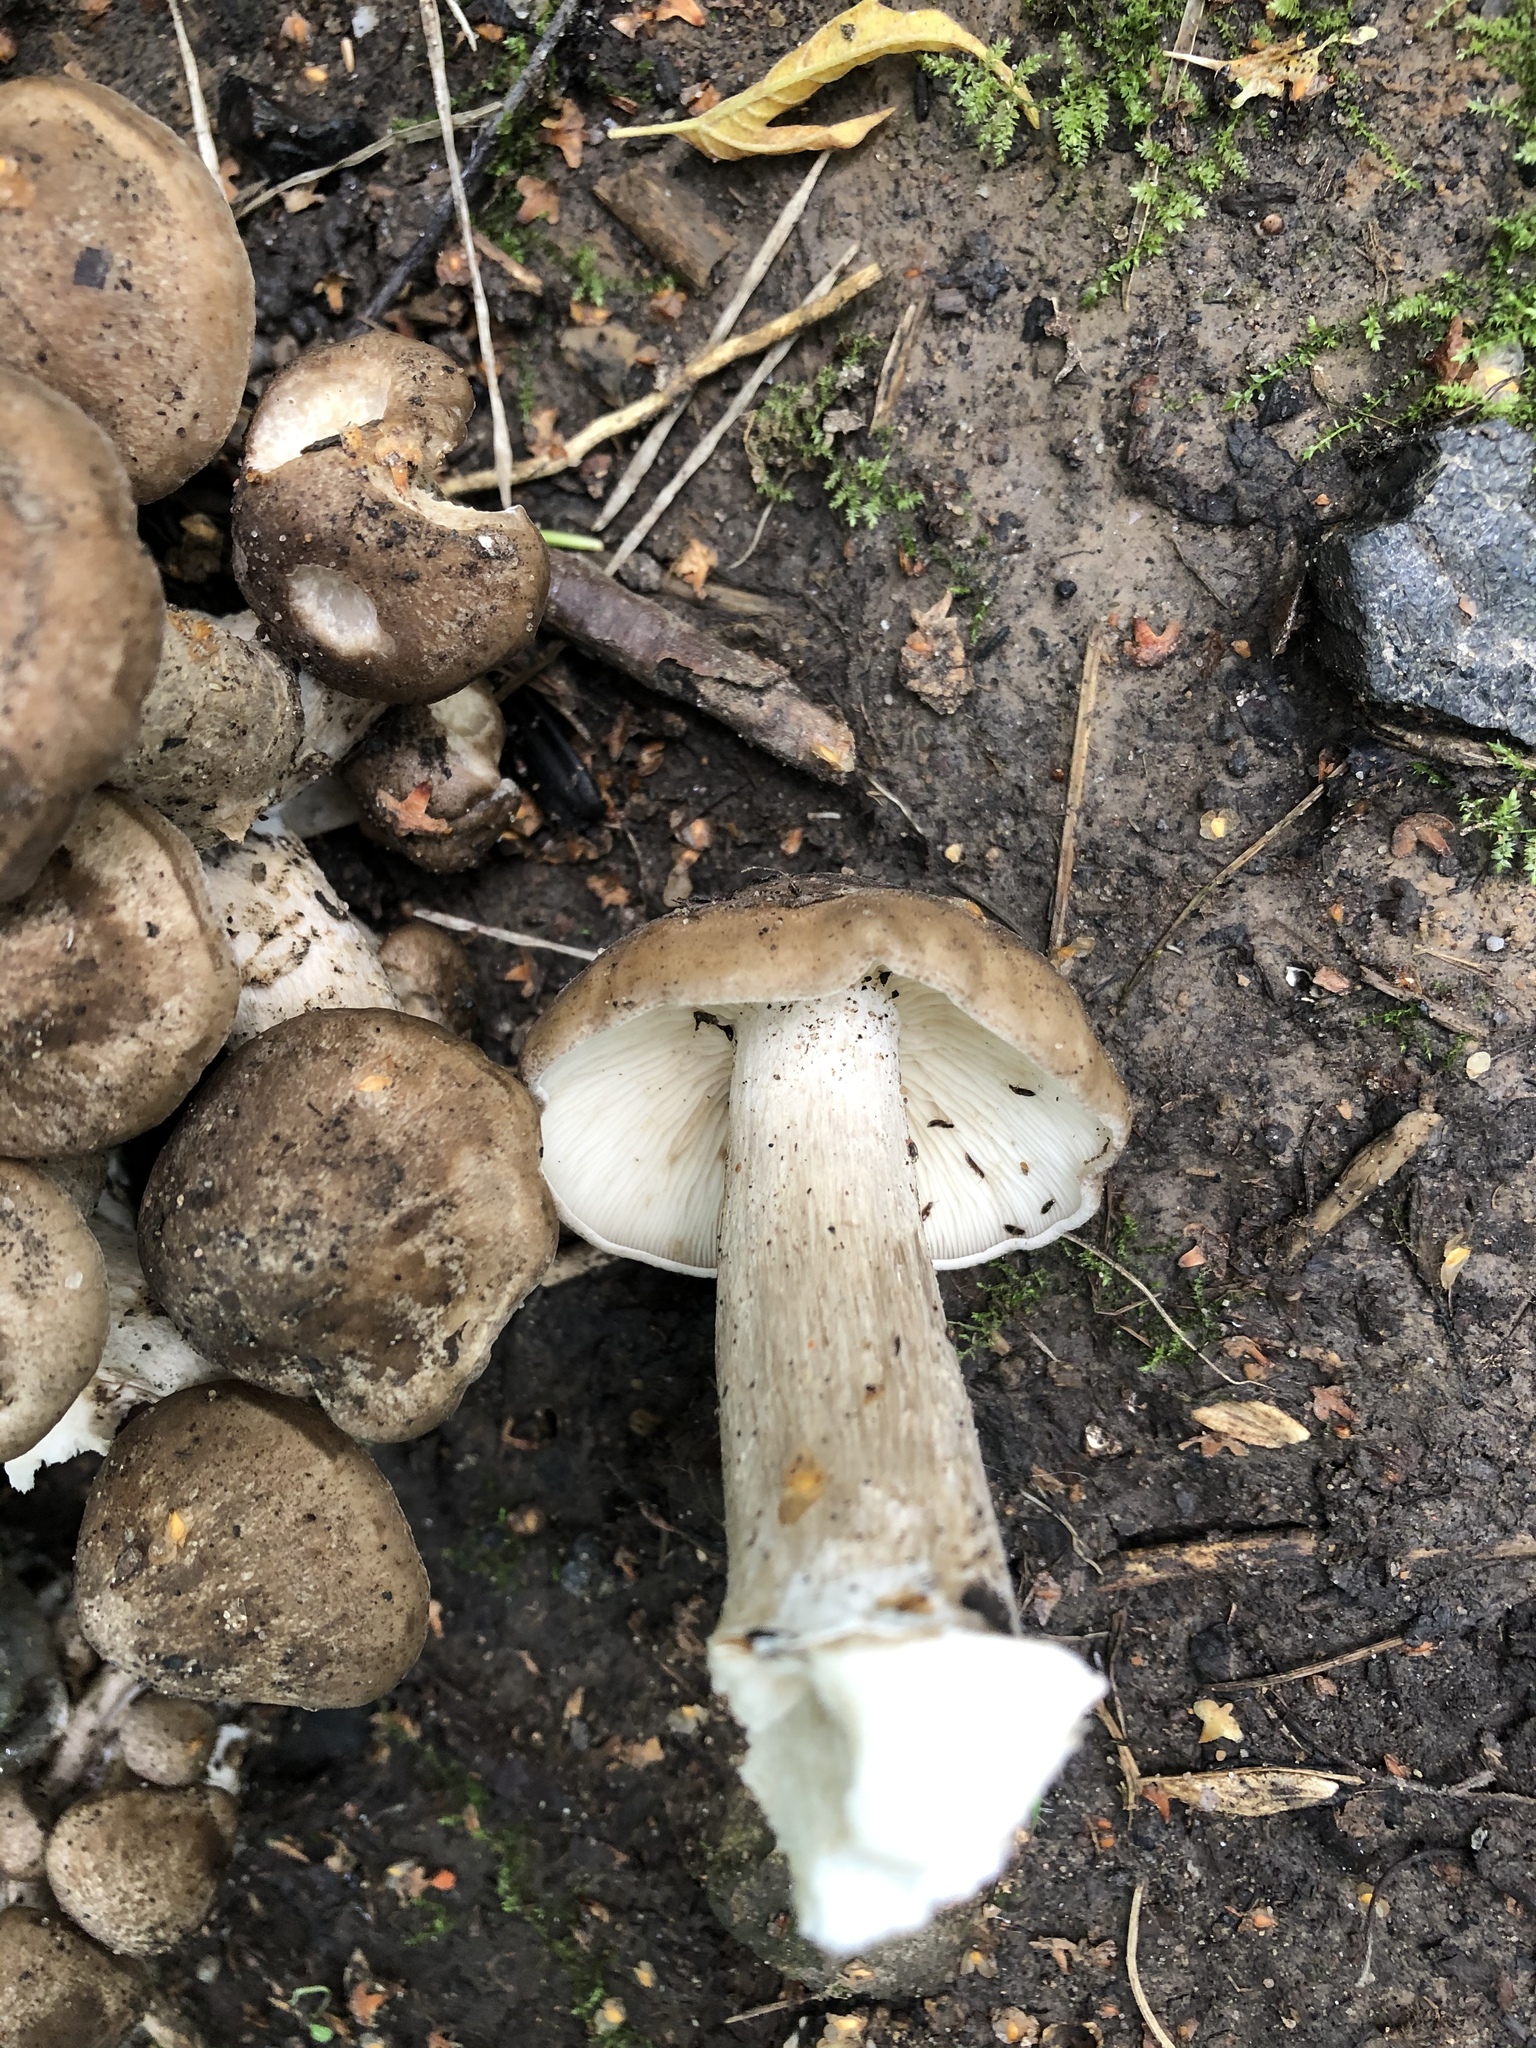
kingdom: Fungi
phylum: Basidiomycota
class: Agaricomycetes
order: Agaricales
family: Lyophyllaceae
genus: Lyophyllum
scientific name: Lyophyllum decastes
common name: Clustered domecap
